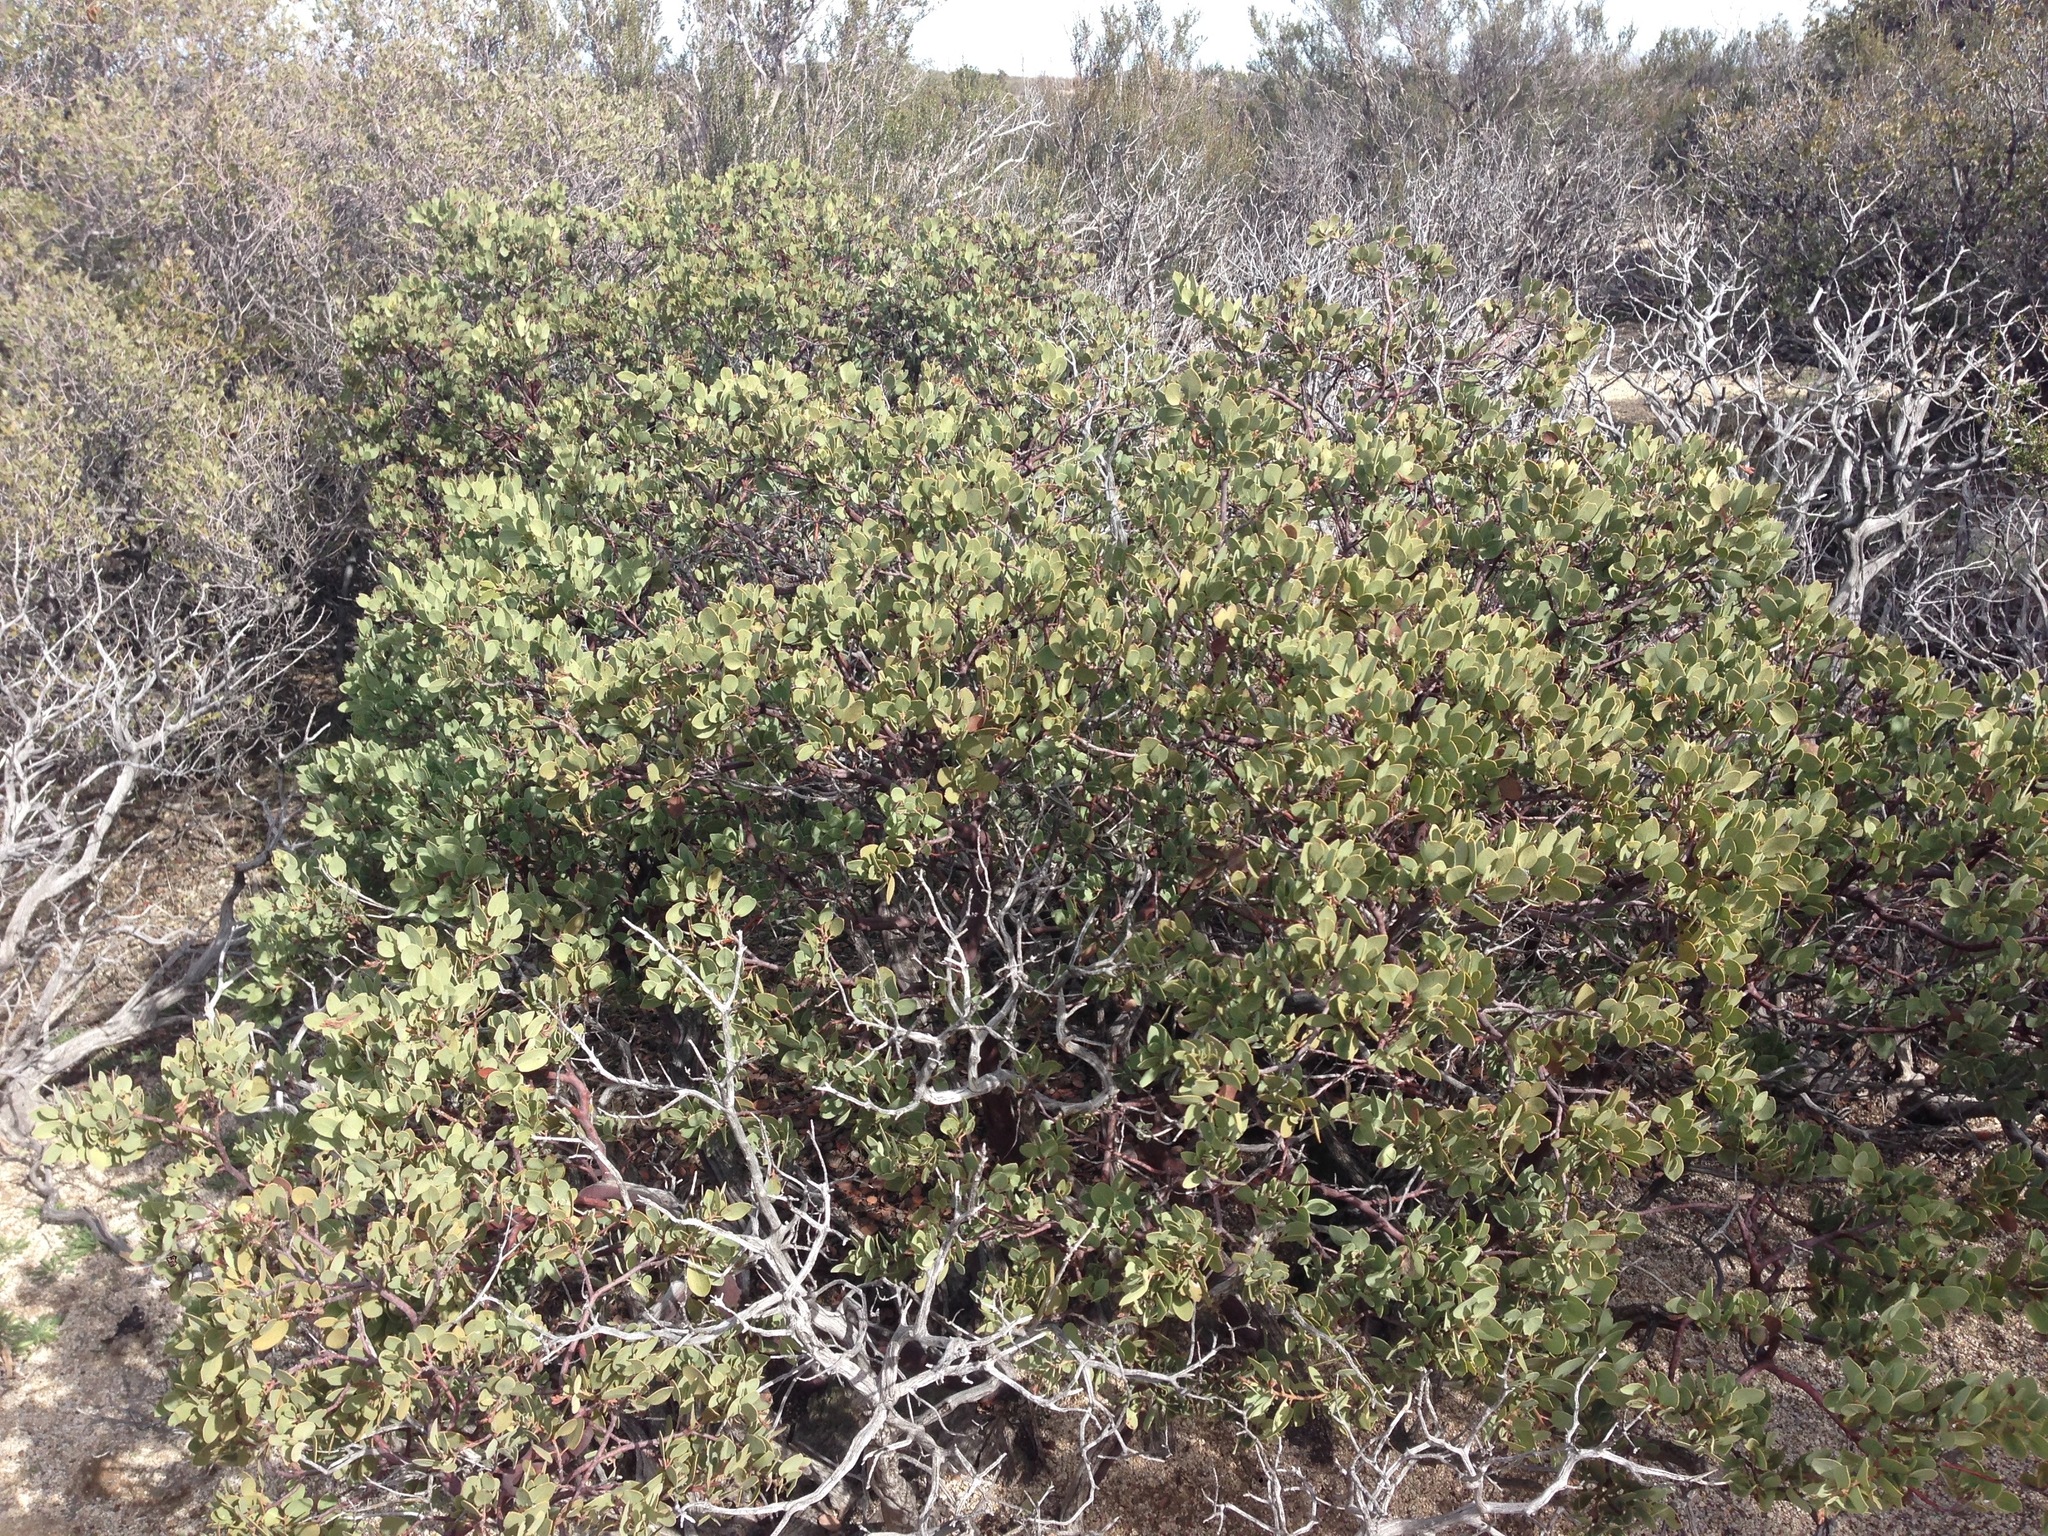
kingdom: Plantae
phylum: Tracheophyta
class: Magnoliopsida
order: Ericales
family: Ericaceae
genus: Arctostaphylos
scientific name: Arctostaphylos glandulosa
